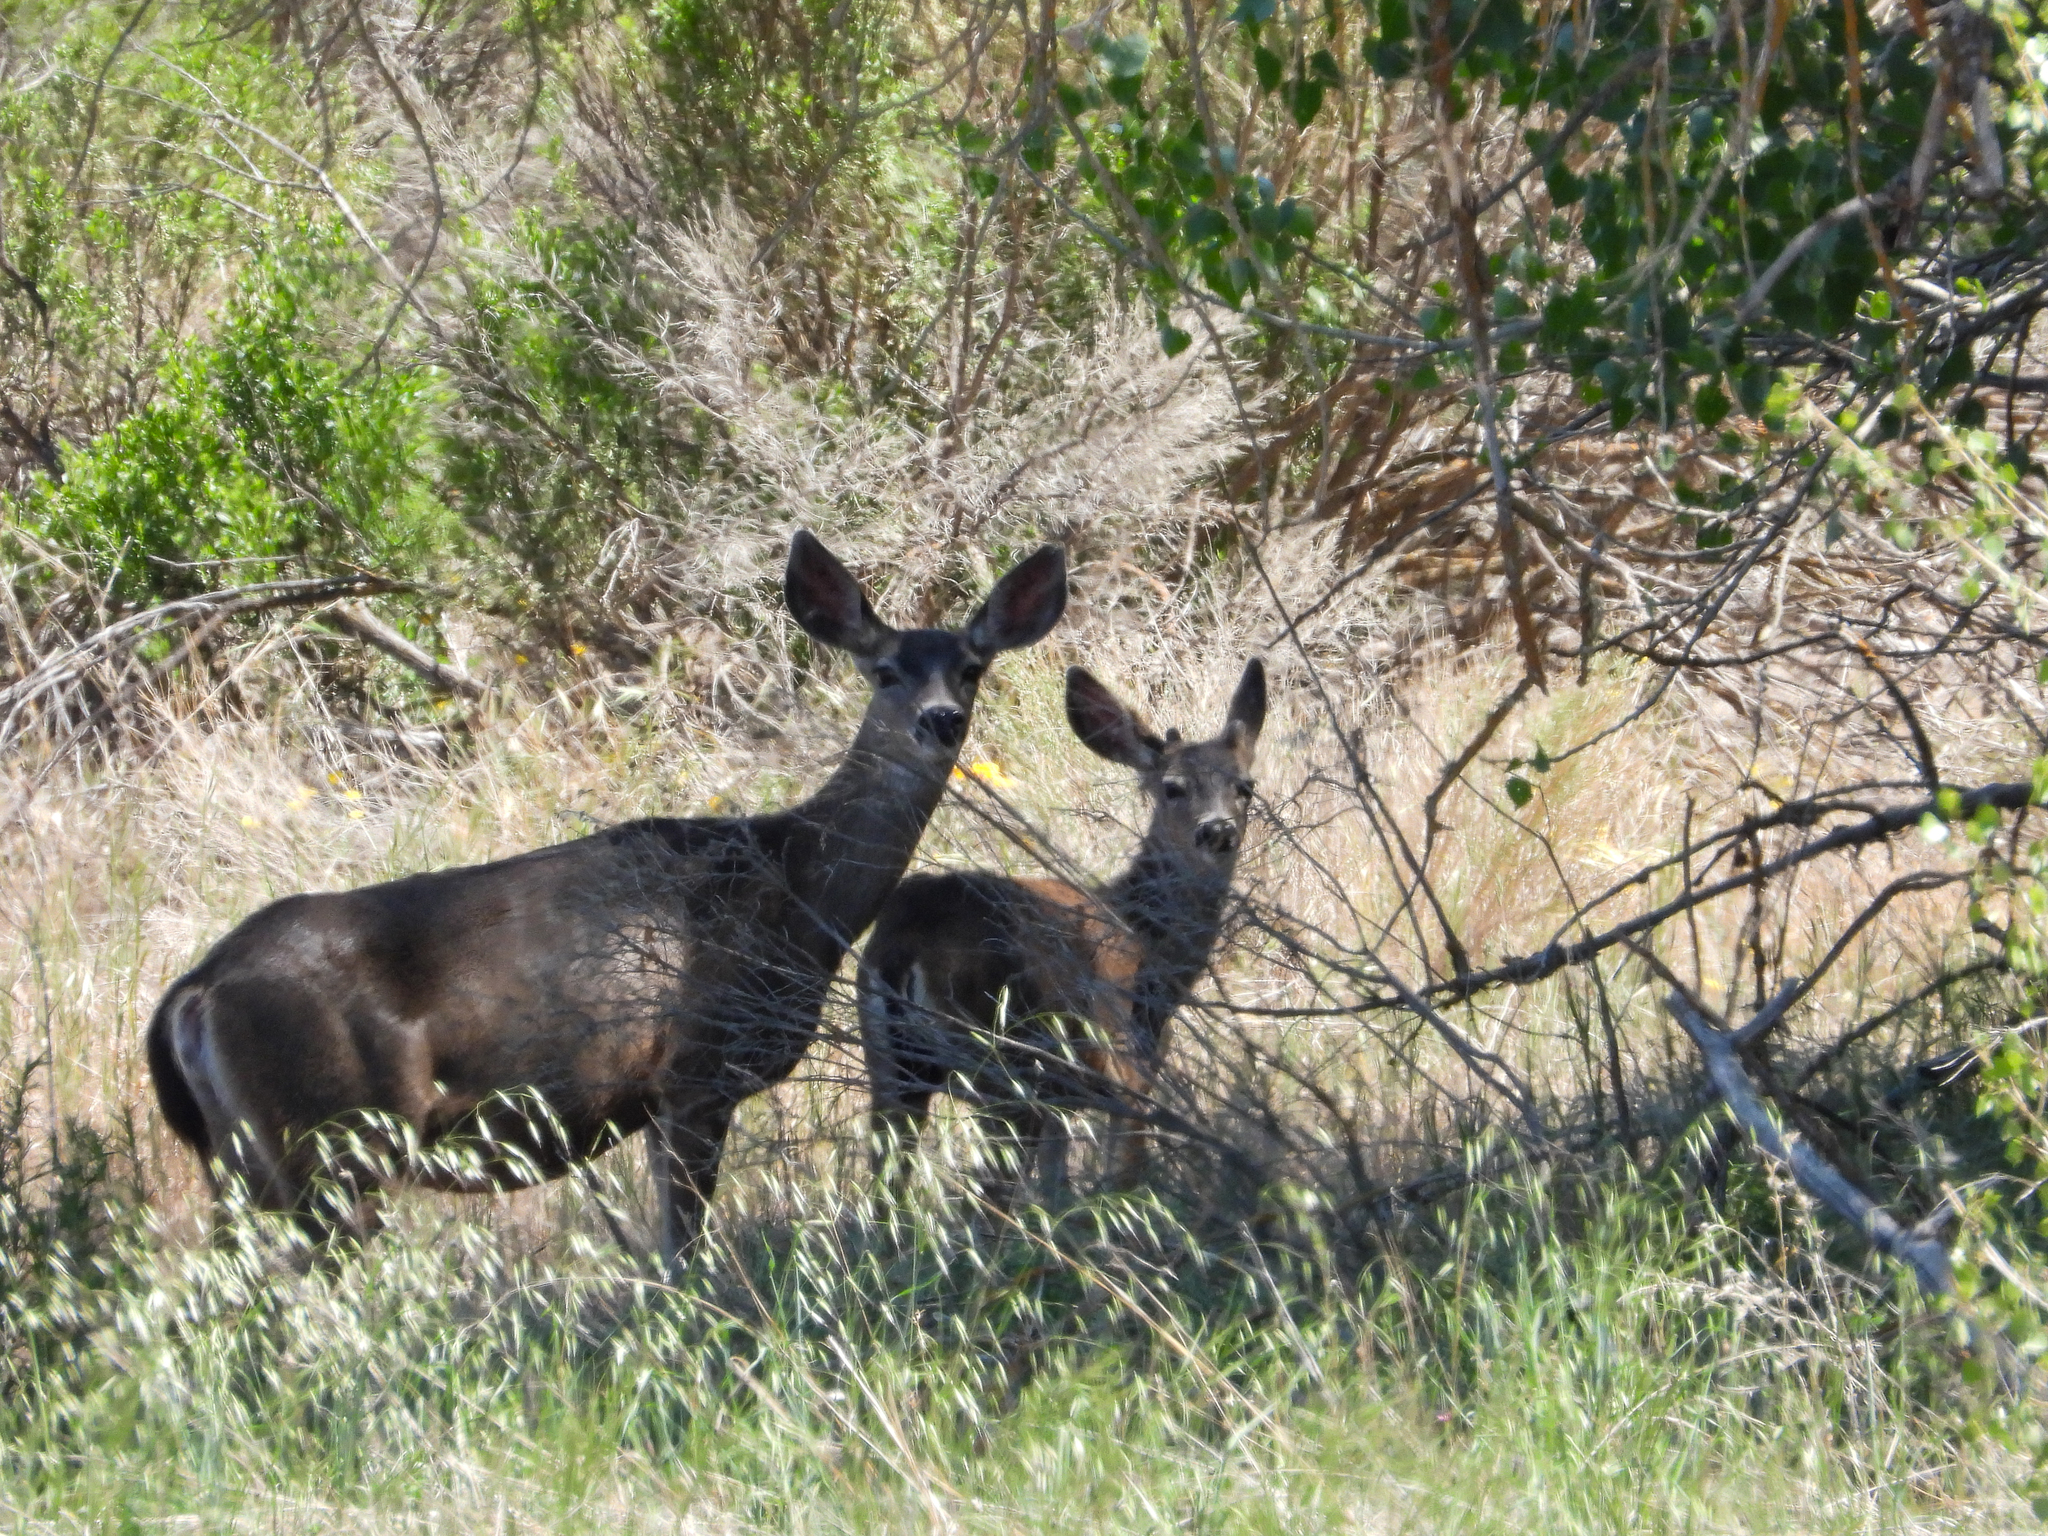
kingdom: Animalia
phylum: Chordata
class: Mammalia
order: Artiodactyla
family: Cervidae
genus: Odocoileus
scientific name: Odocoileus hemionus
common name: Mule deer
